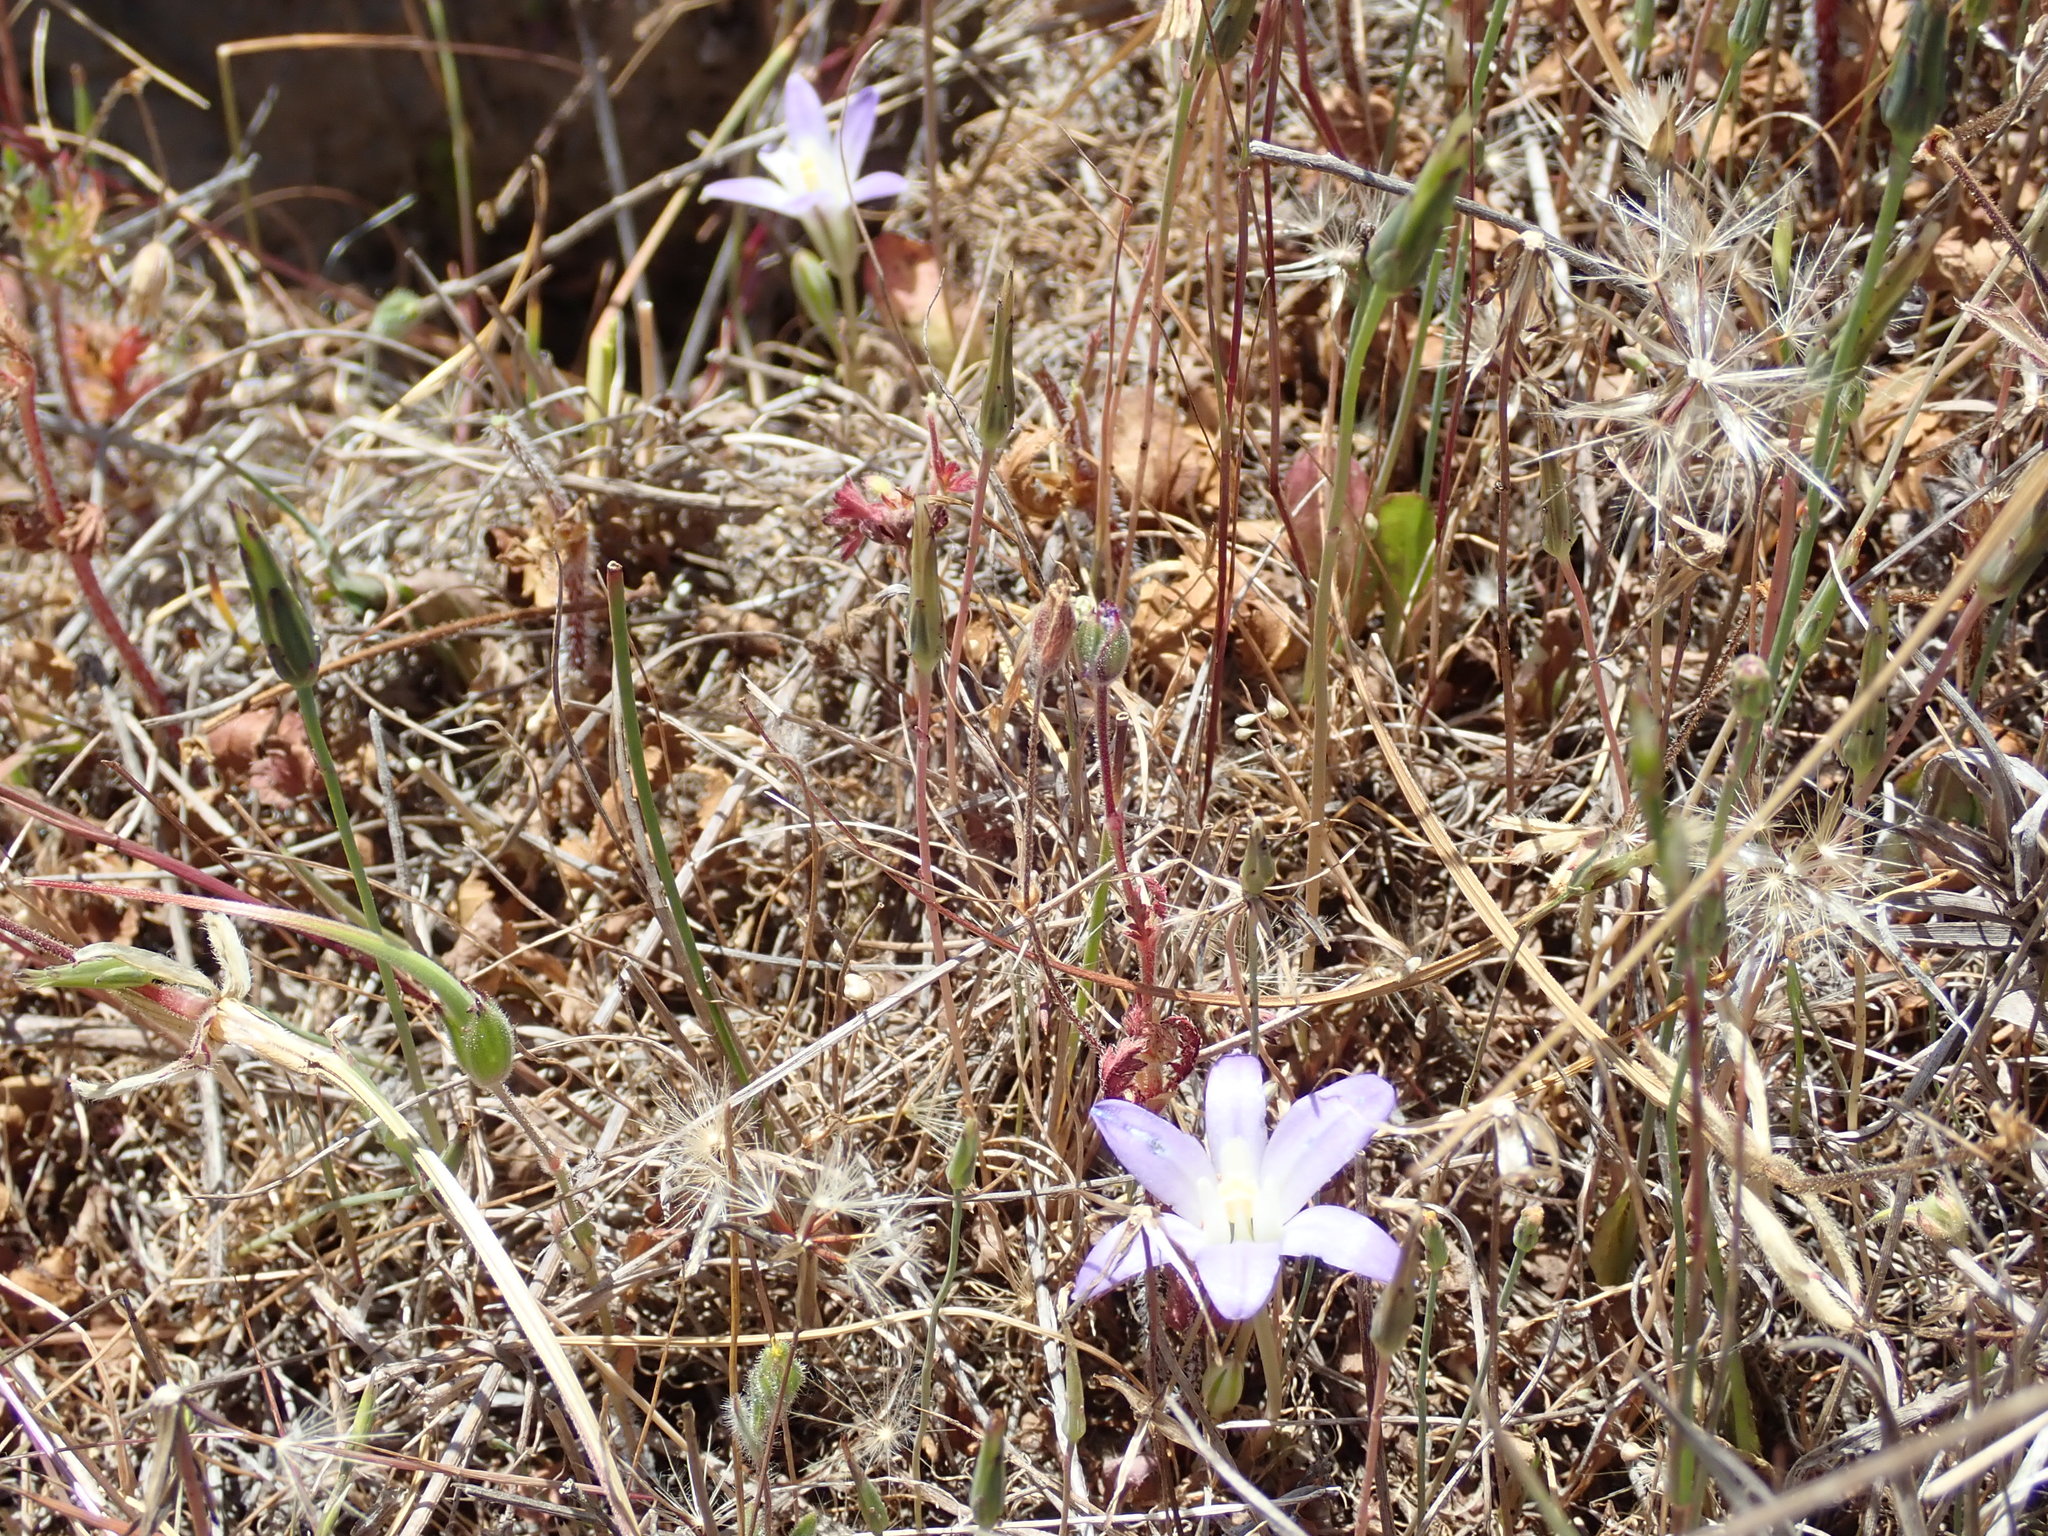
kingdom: Plantae
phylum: Tracheophyta
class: Liliopsida
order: Asparagales
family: Asparagaceae
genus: Brodiaea
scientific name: Brodiaea terrestris
